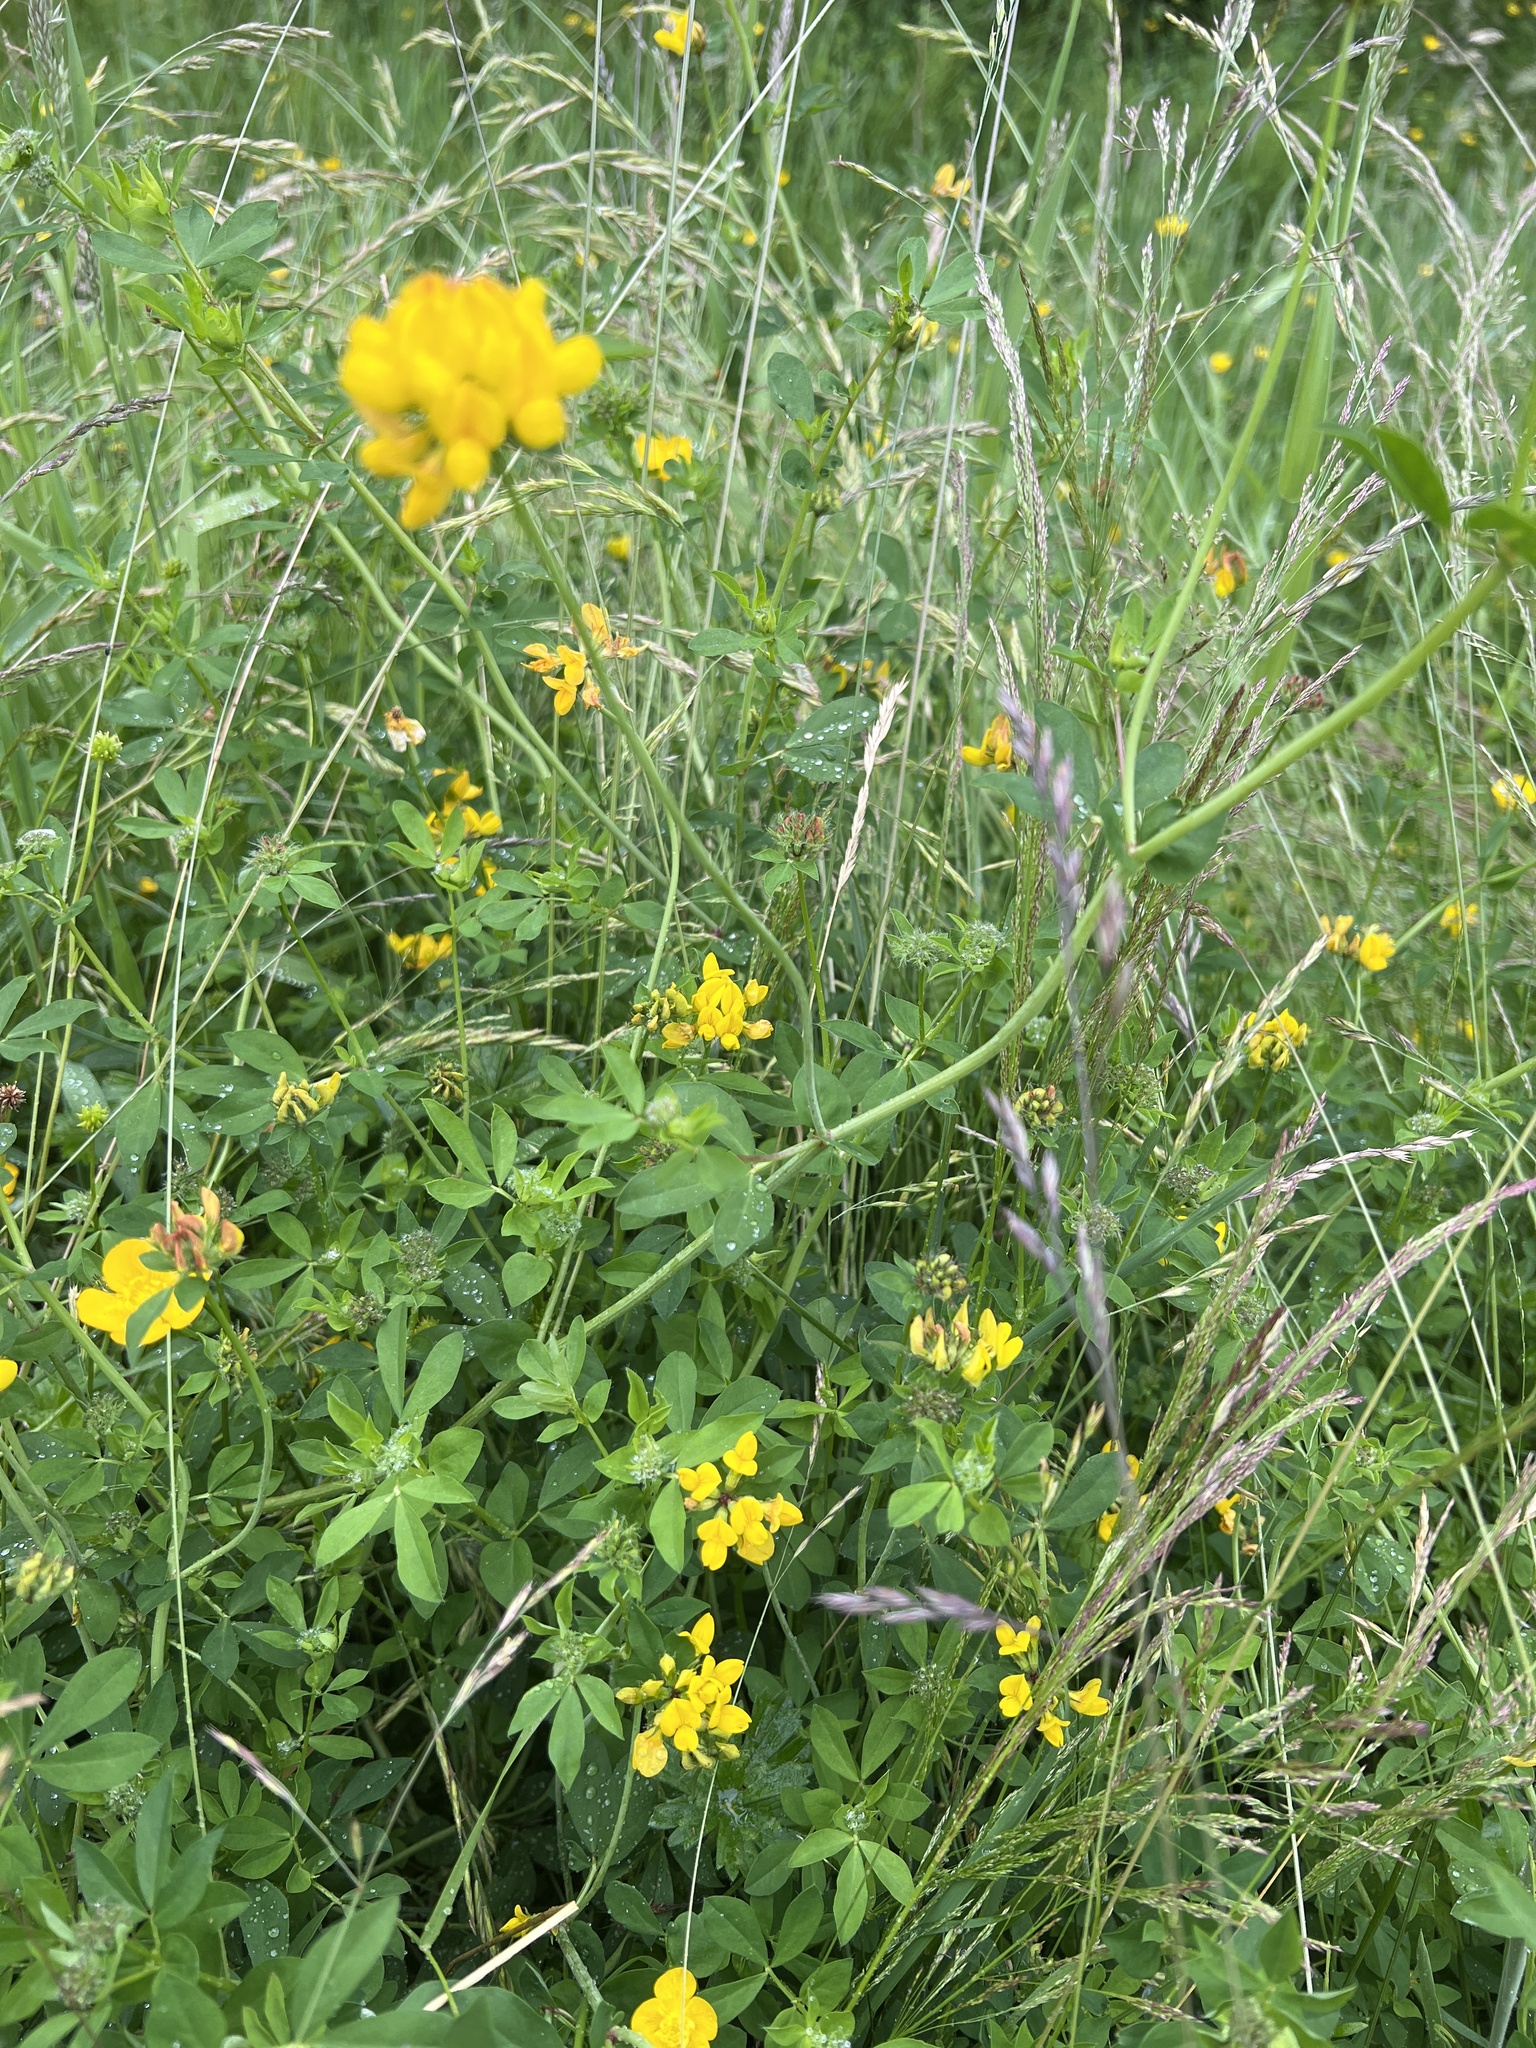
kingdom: Plantae
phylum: Tracheophyta
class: Magnoliopsida
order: Fabales
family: Fabaceae
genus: Lotus
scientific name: Lotus corniculatus
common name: Common bird's-foot-trefoil
